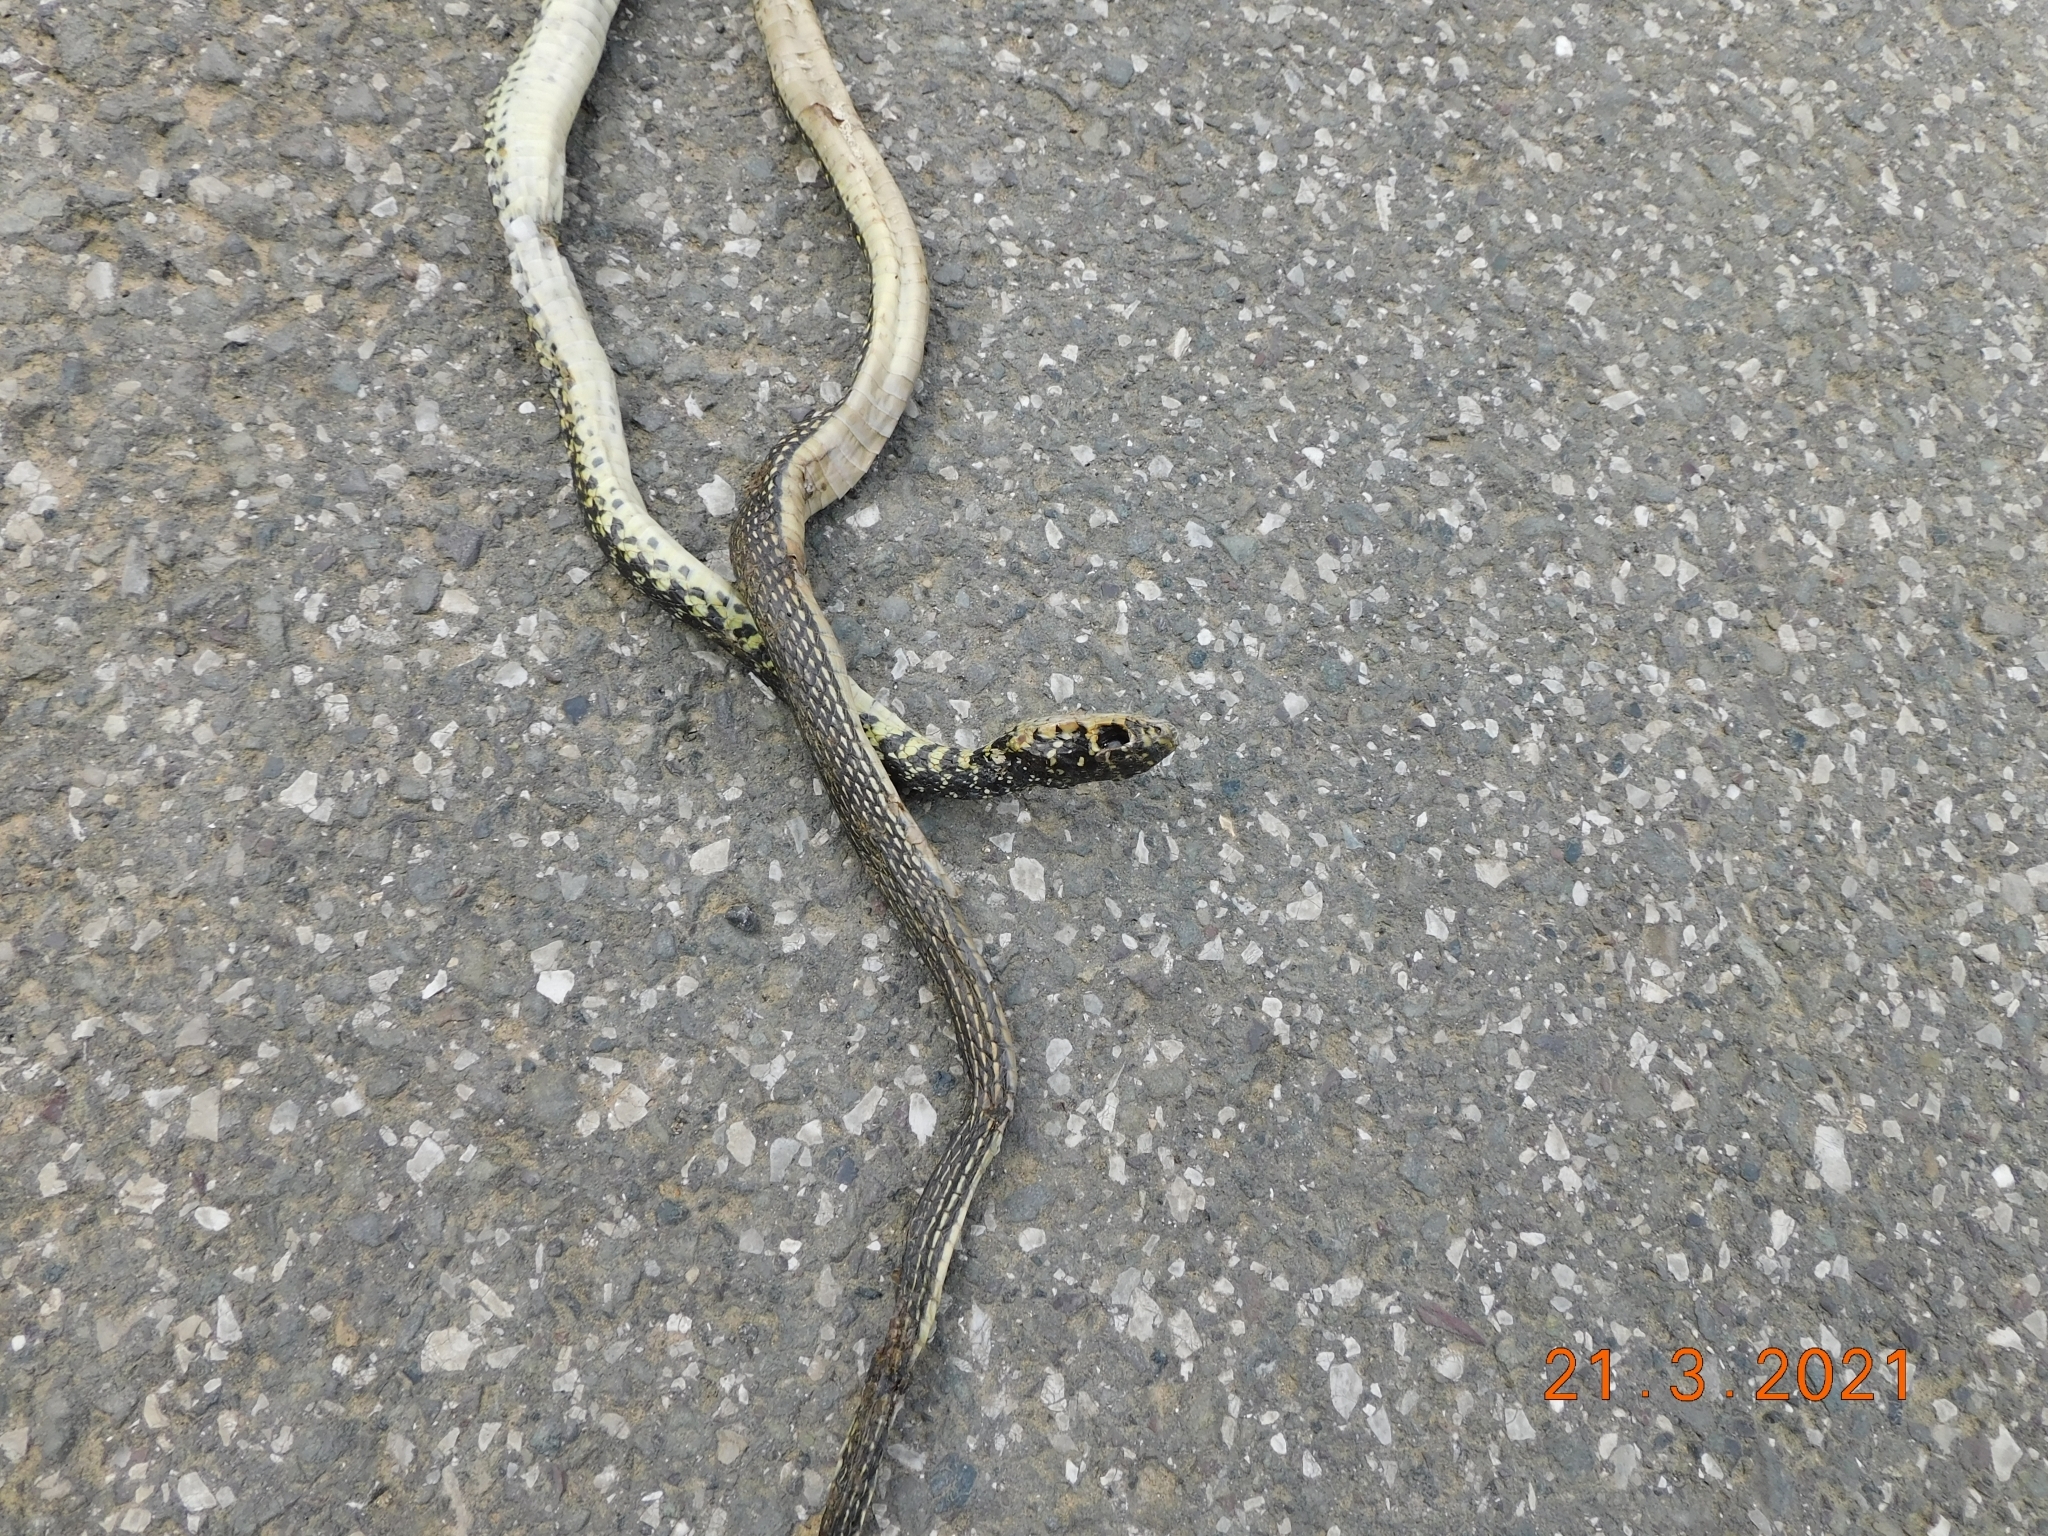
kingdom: Animalia
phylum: Chordata
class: Squamata
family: Colubridae
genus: Hierophis
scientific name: Hierophis viridiflavus
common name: Green whip snake
